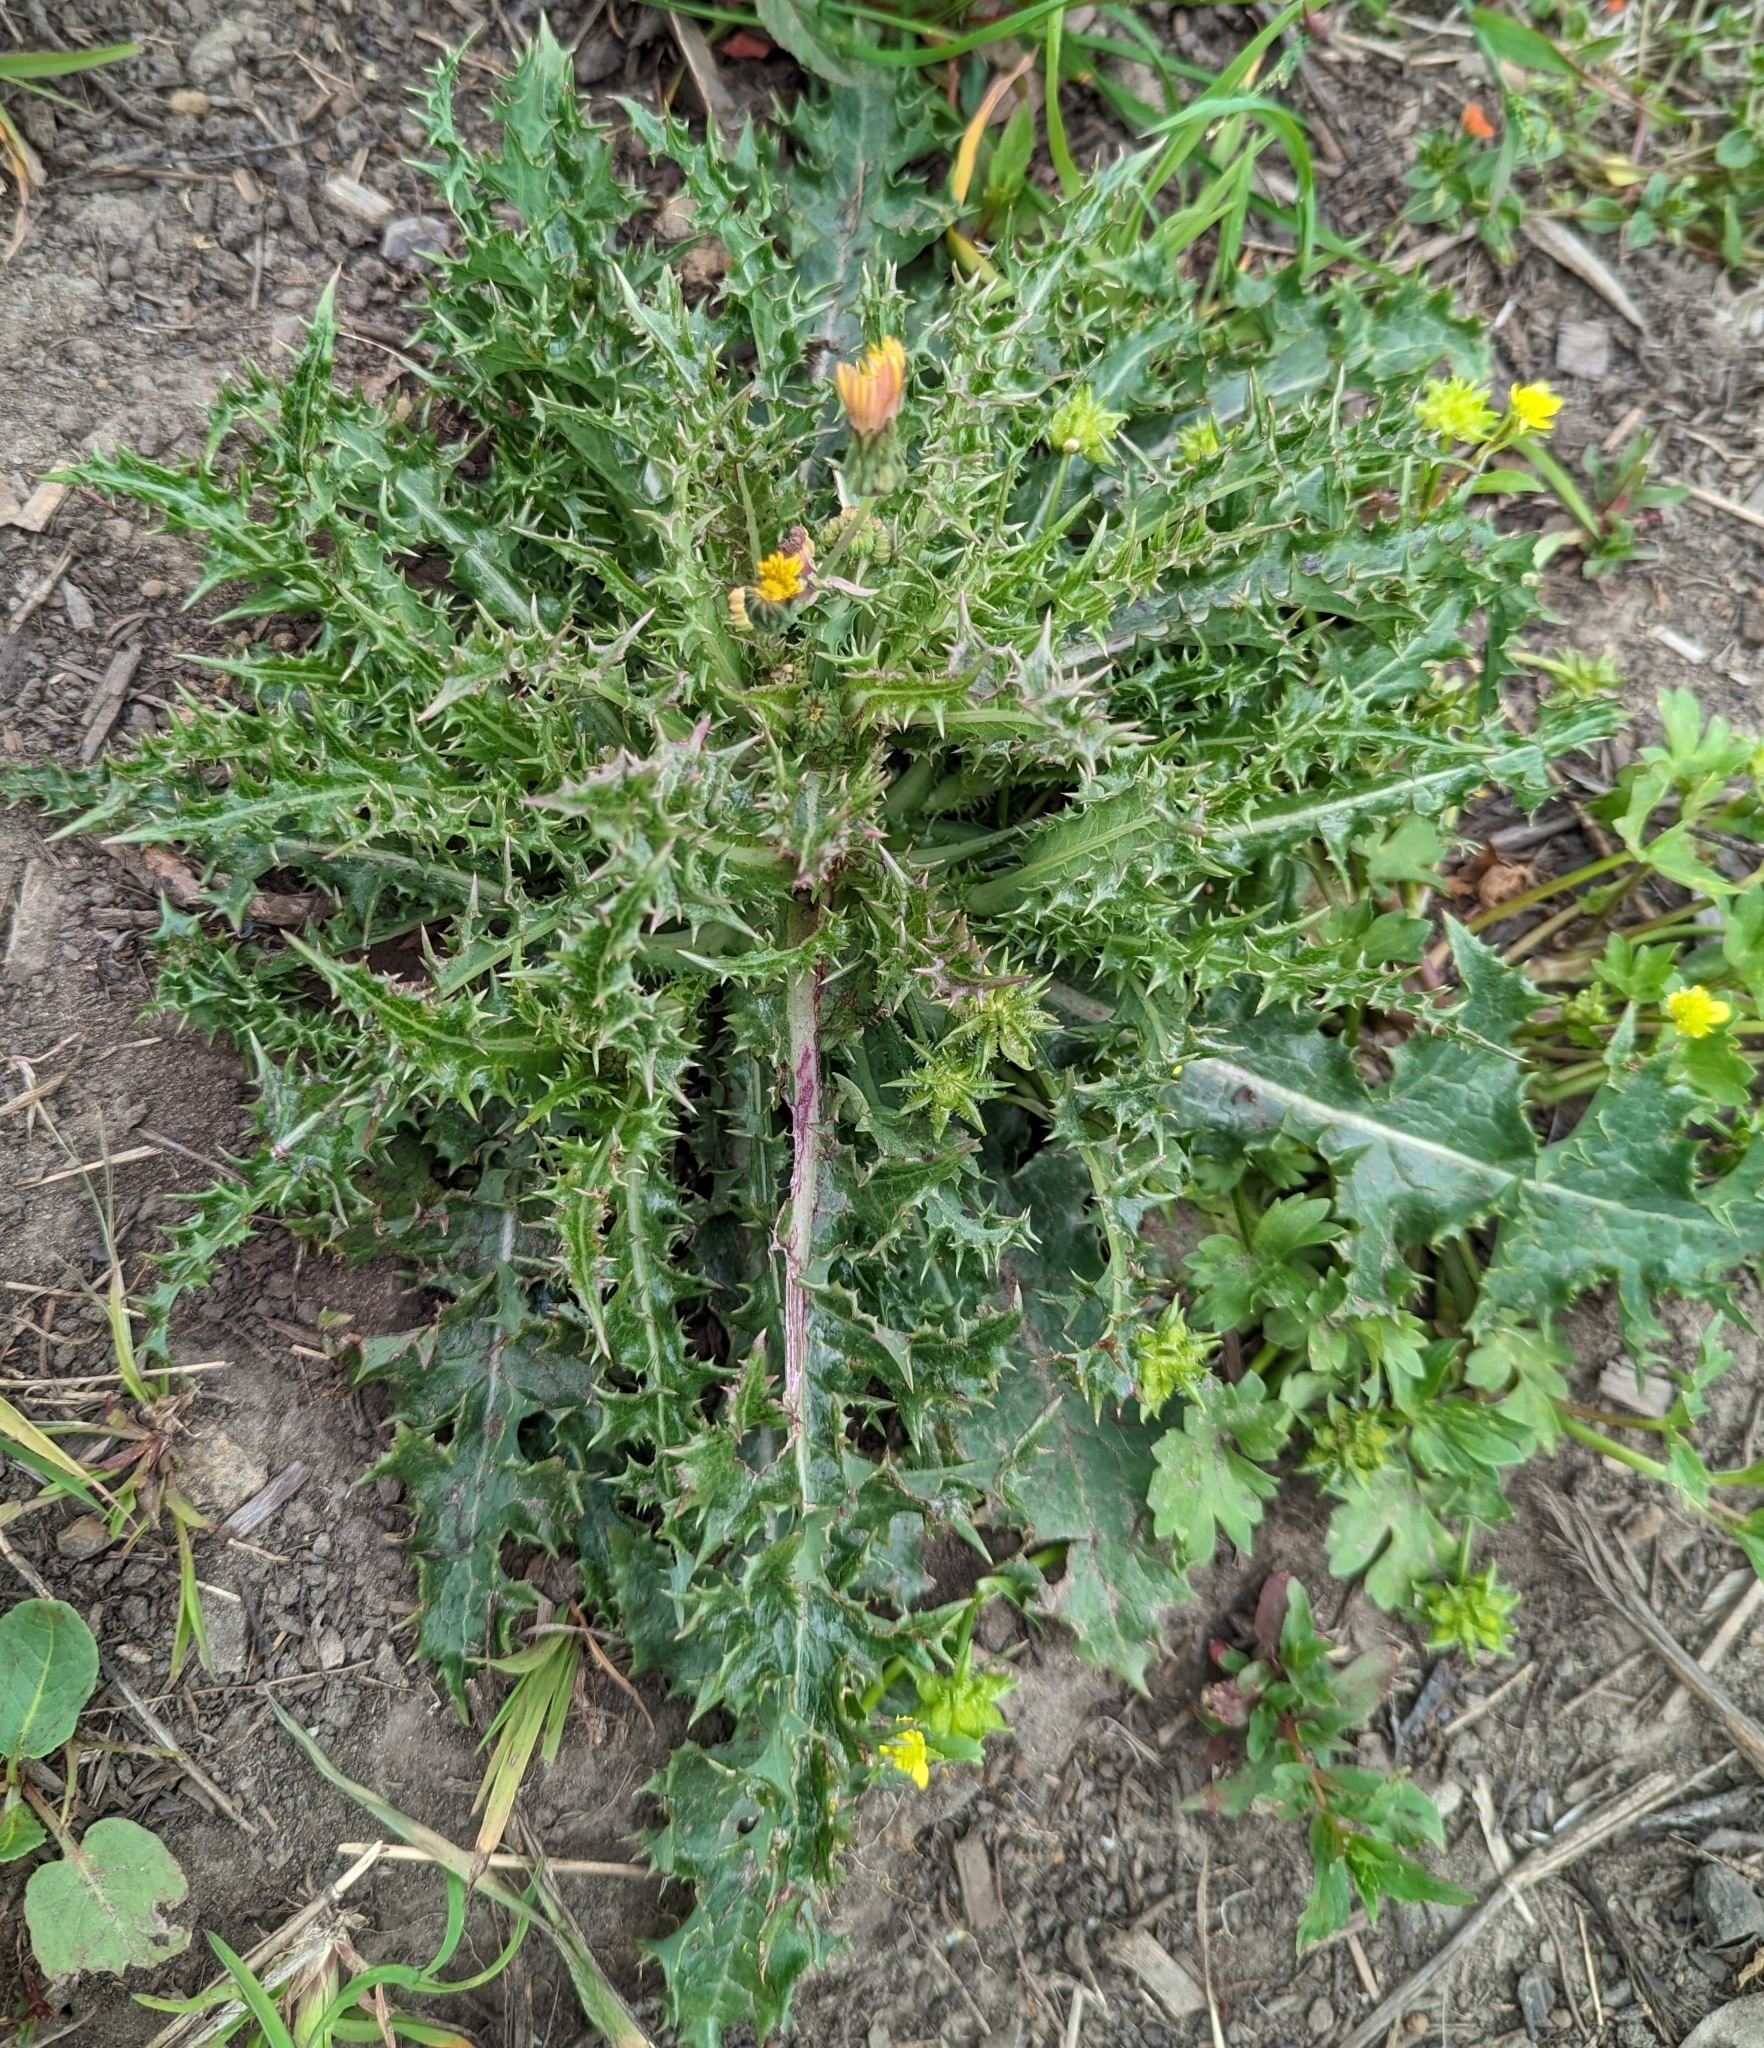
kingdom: Plantae
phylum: Tracheophyta
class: Magnoliopsida
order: Asterales
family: Asteraceae
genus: Sonchus
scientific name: Sonchus asper
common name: Prickly sow-thistle
